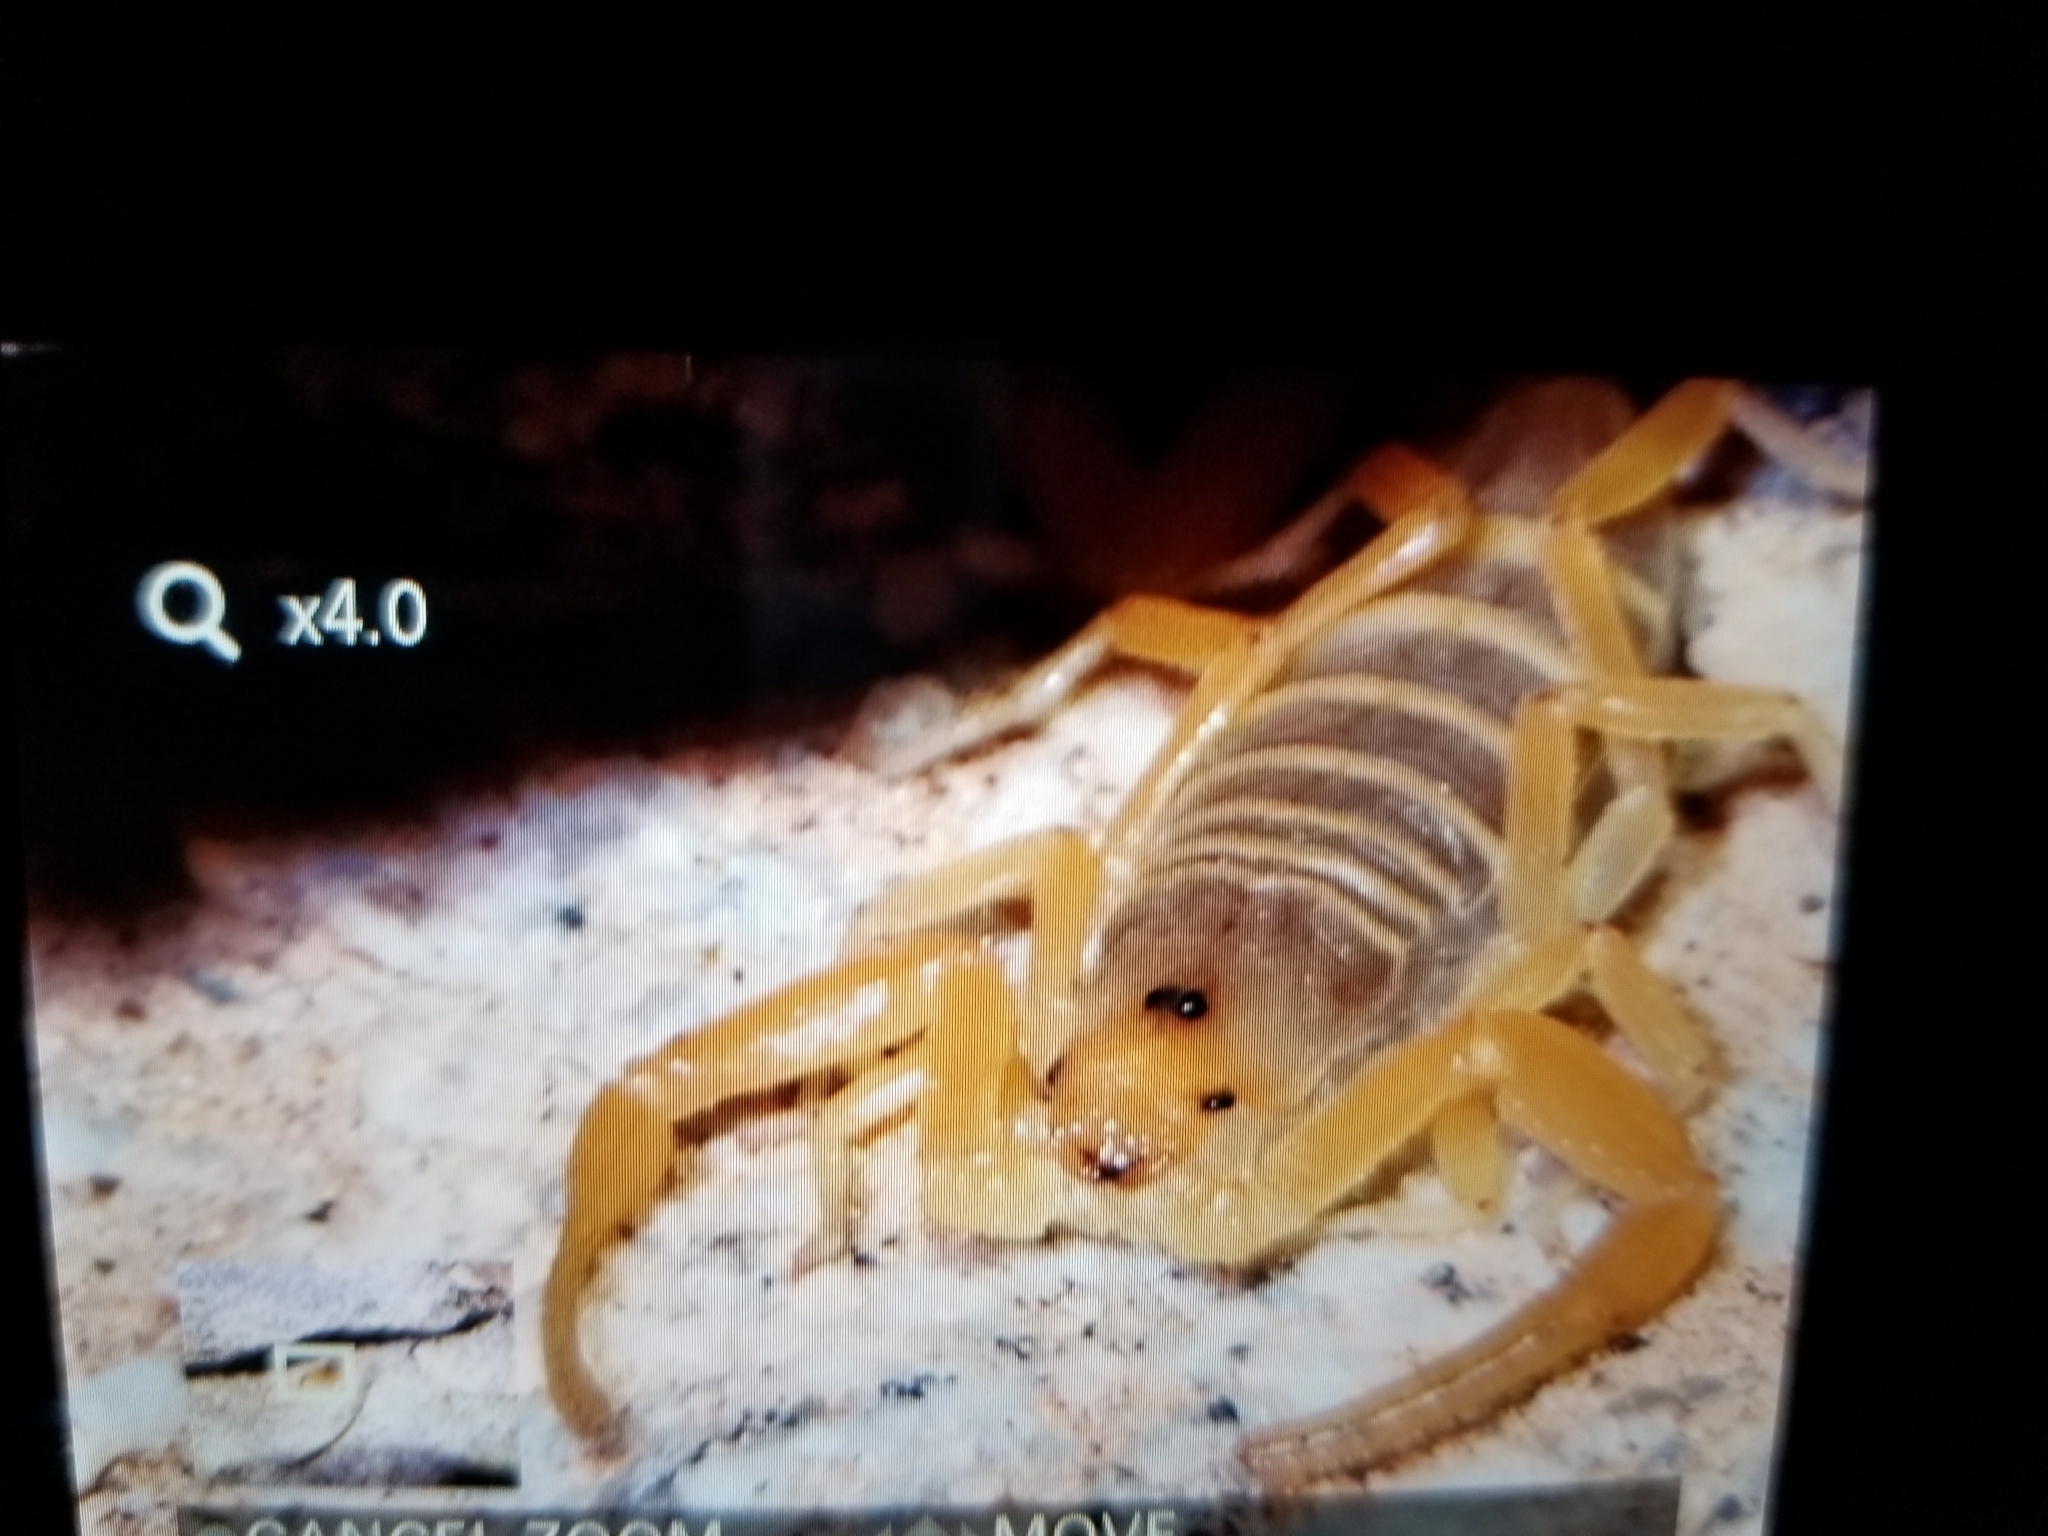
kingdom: Animalia
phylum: Arthropoda
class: Arachnida
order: Scorpiones
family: Buthidae
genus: Centruroides
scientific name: Centruroides sculpturatus
